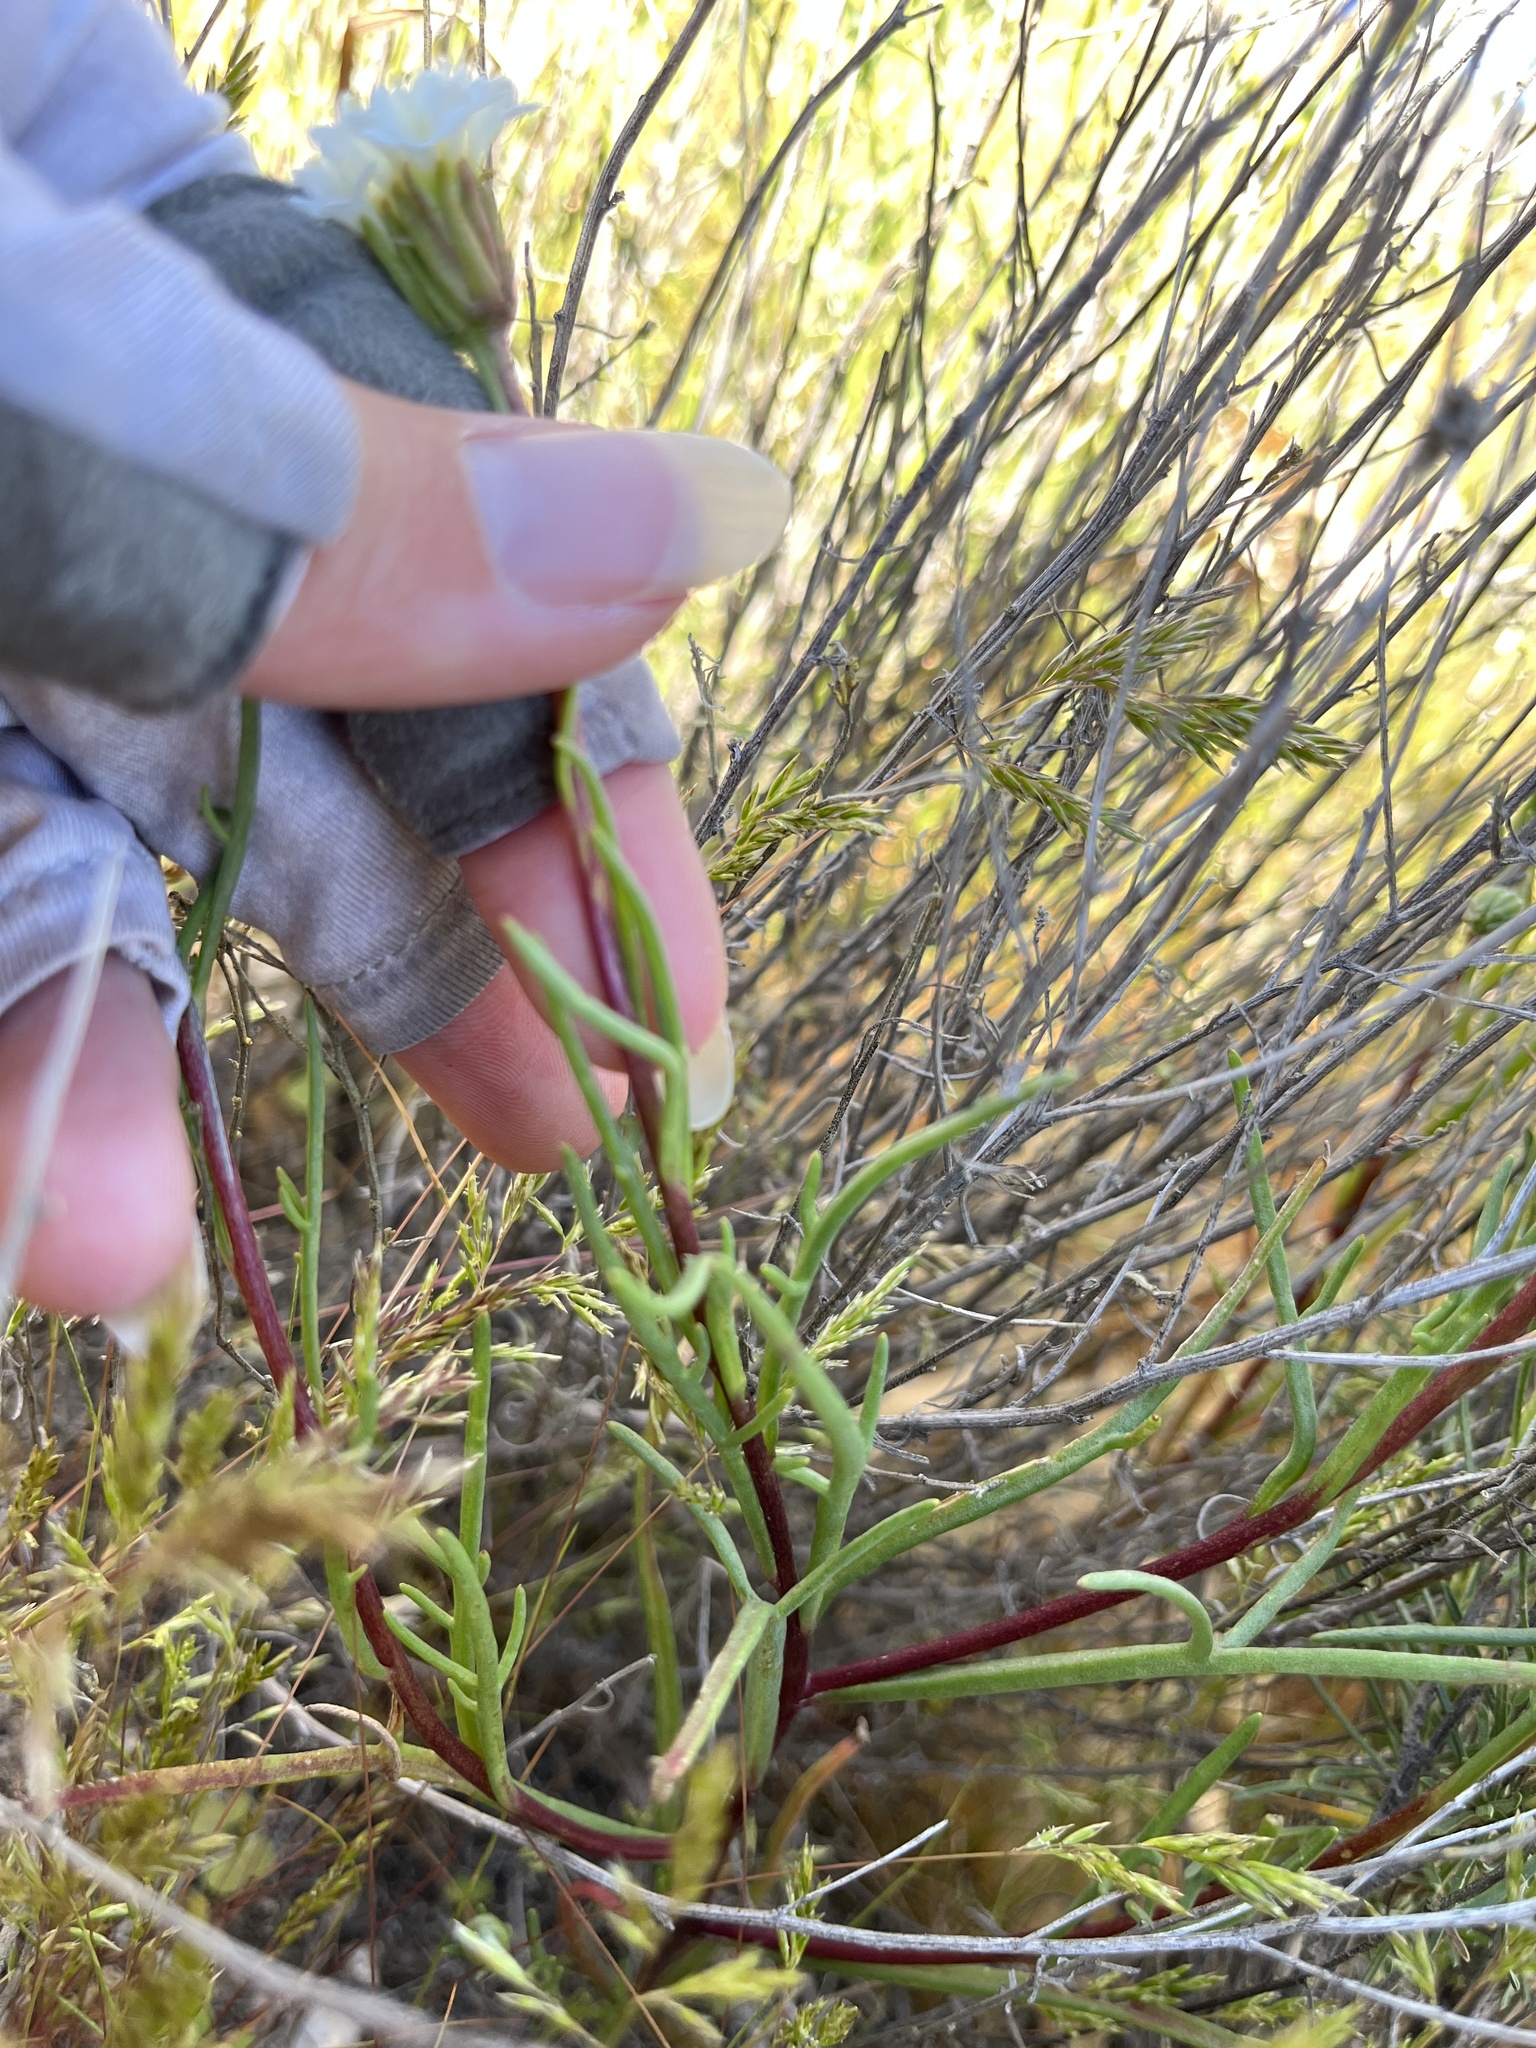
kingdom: Plantae
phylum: Tracheophyta
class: Magnoliopsida
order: Asterales
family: Asteraceae
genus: Chaenactis
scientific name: Chaenactis fremontii
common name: Fremont pincushion
